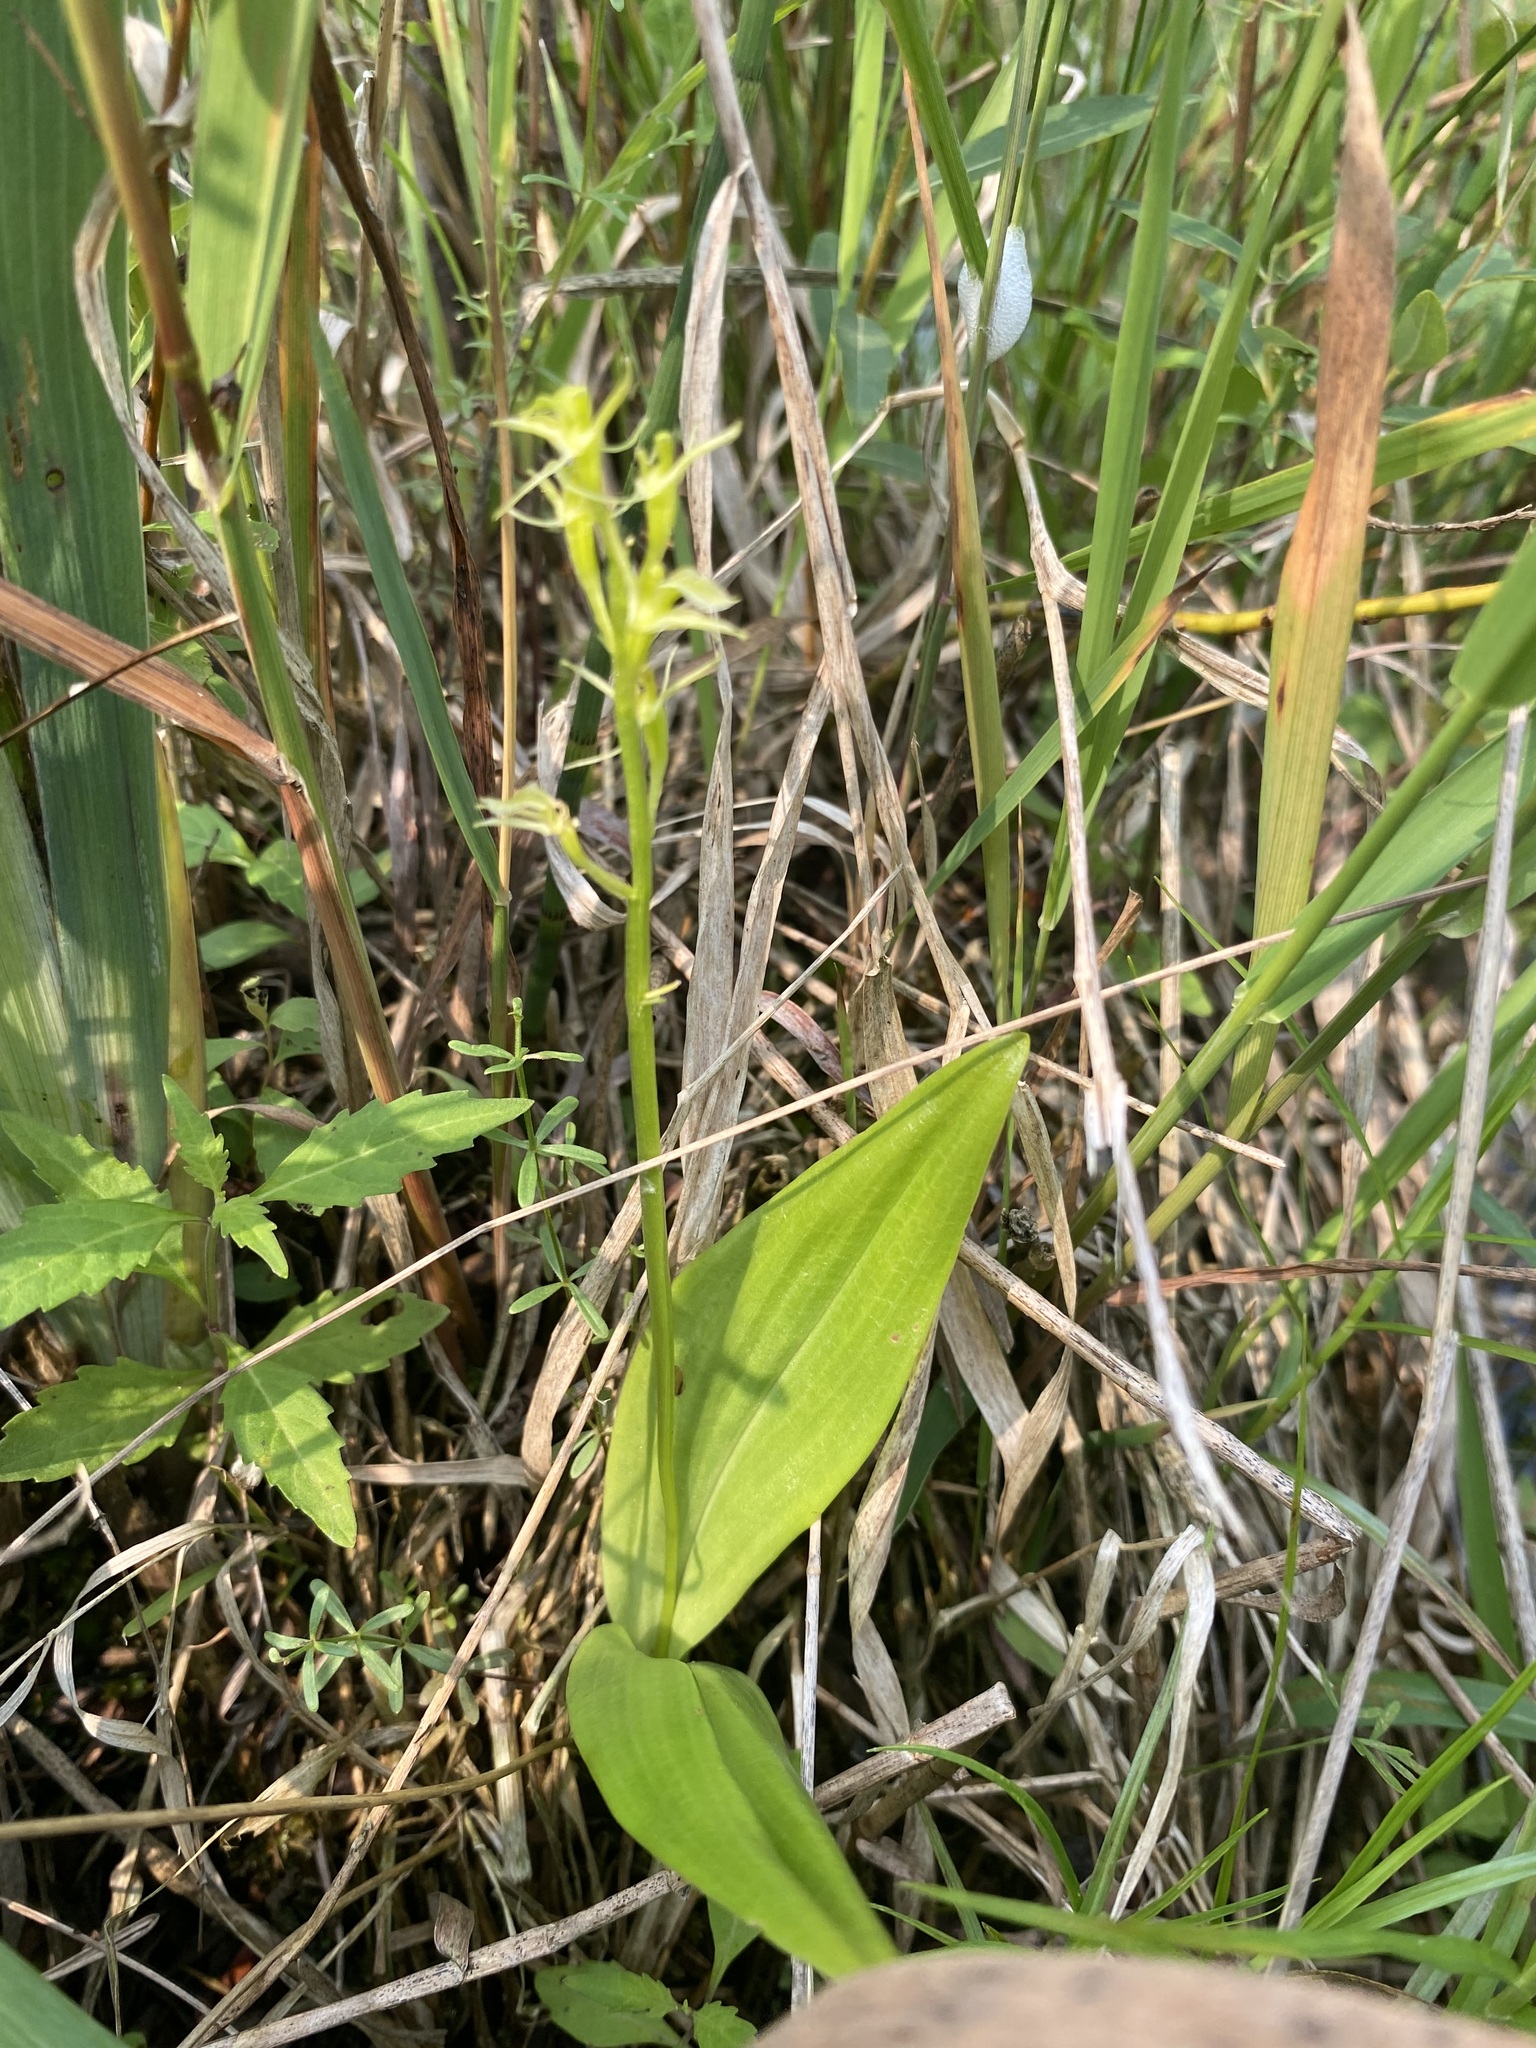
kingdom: Animalia
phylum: Arthropoda
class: Insecta
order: Coleoptera
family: Curculionidae
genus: Liparis
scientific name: Liparis loeselii
